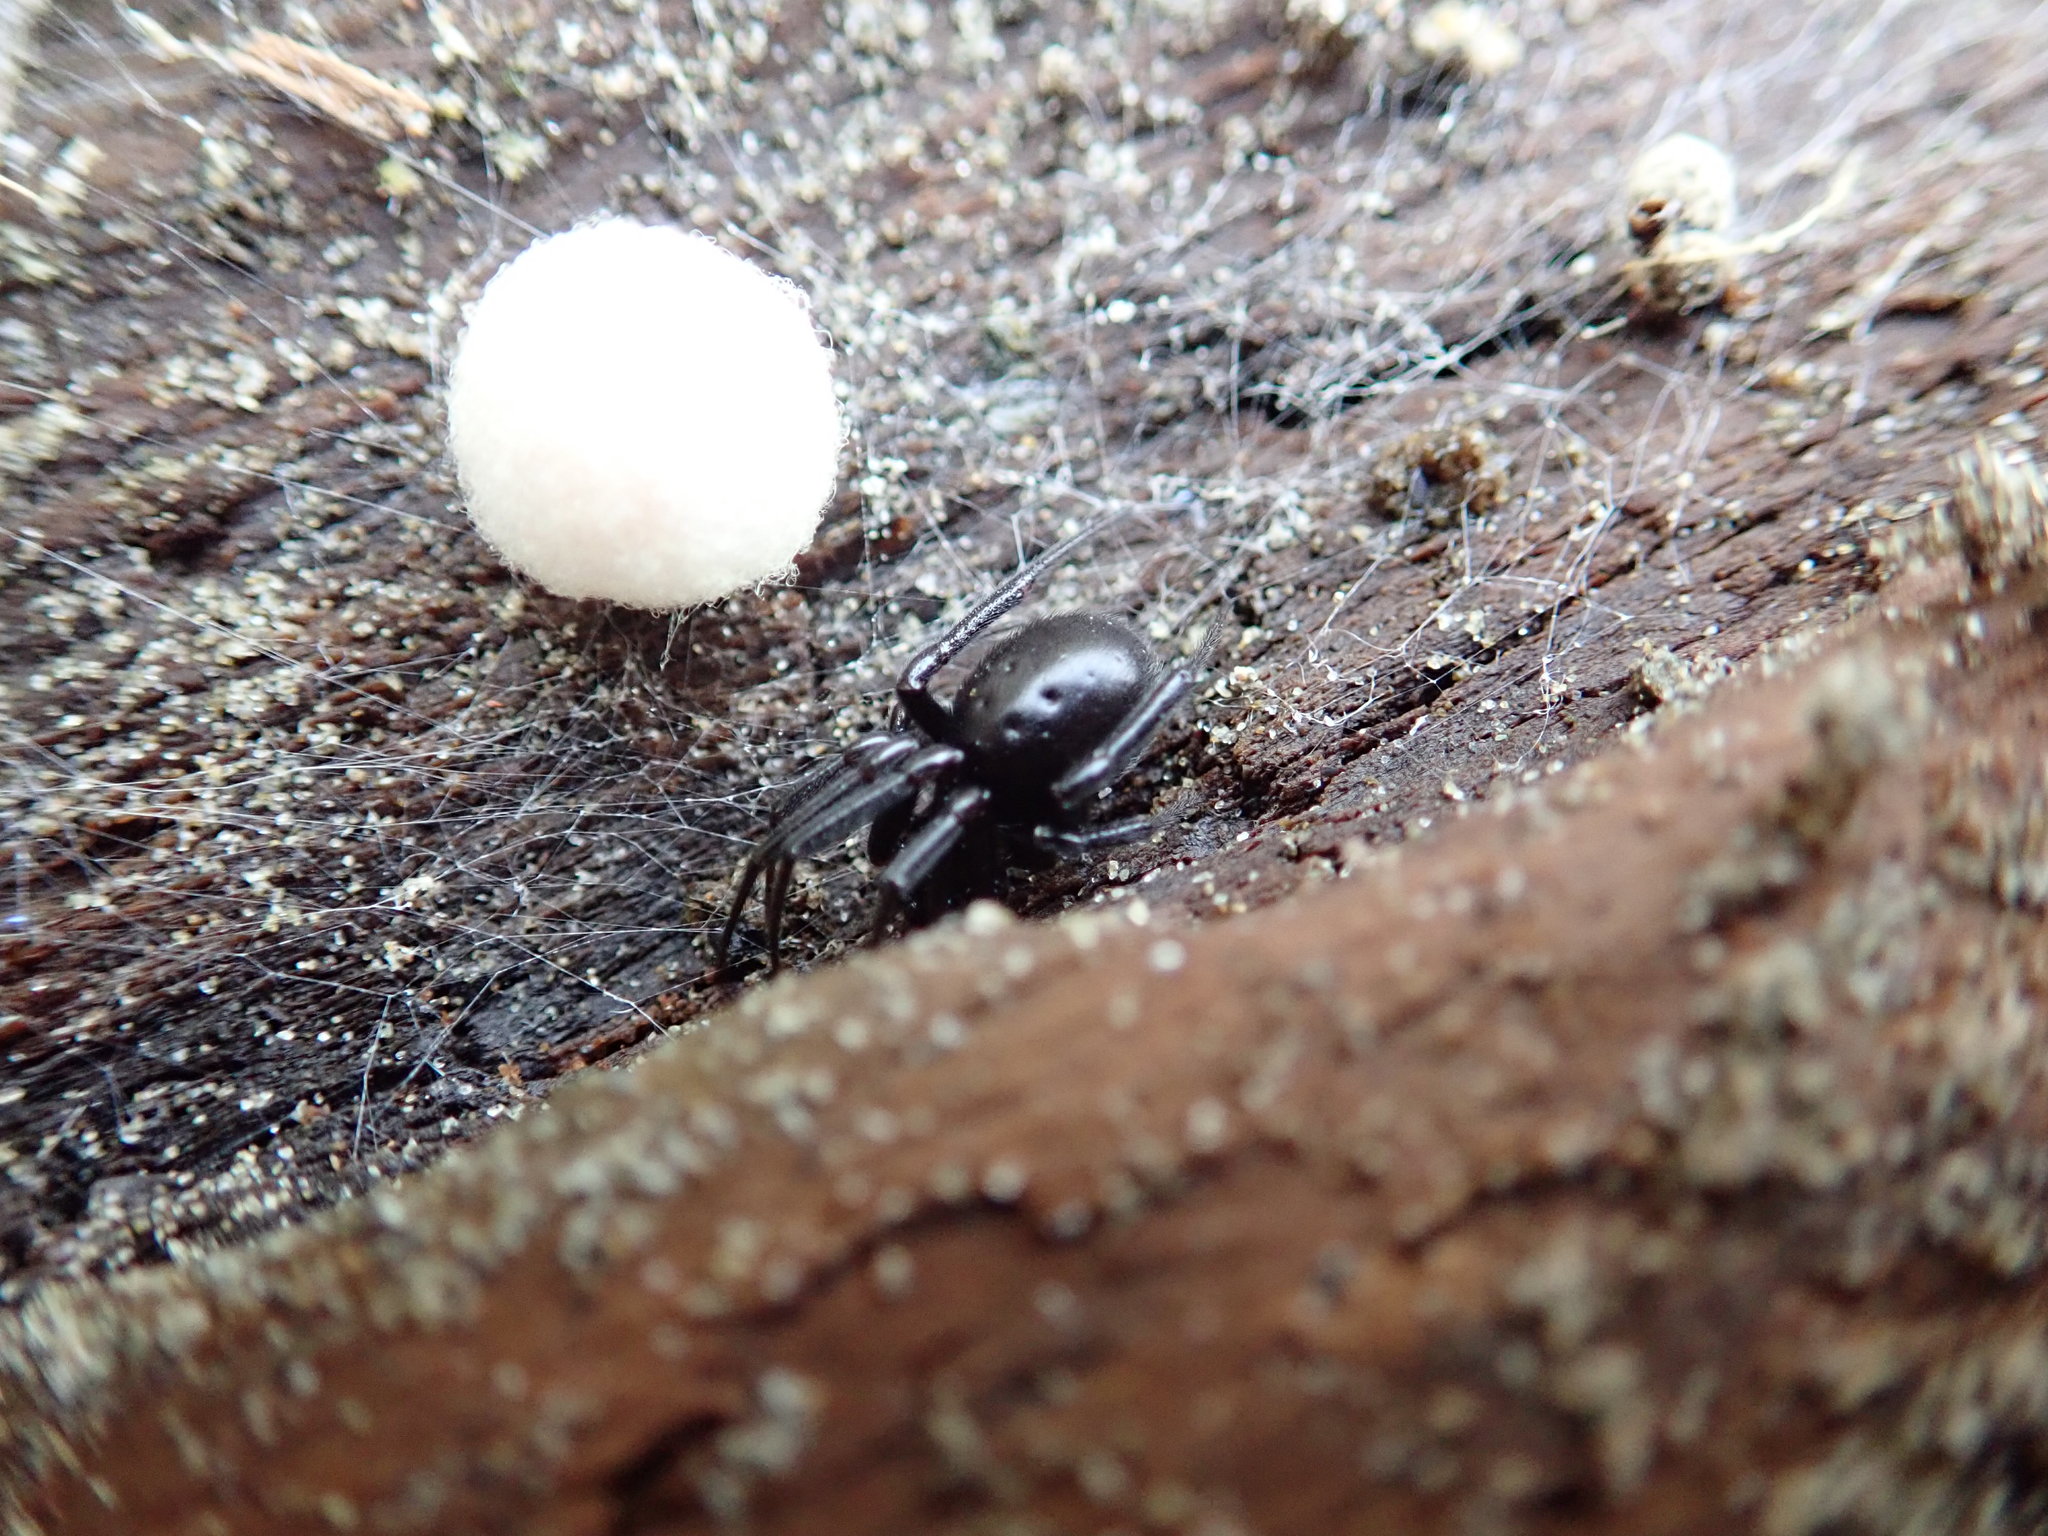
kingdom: Animalia
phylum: Arthropoda
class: Arachnida
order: Araneae
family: Theridiidae
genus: Steatoda
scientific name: Steatoda capensis
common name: Cobweb weaver
